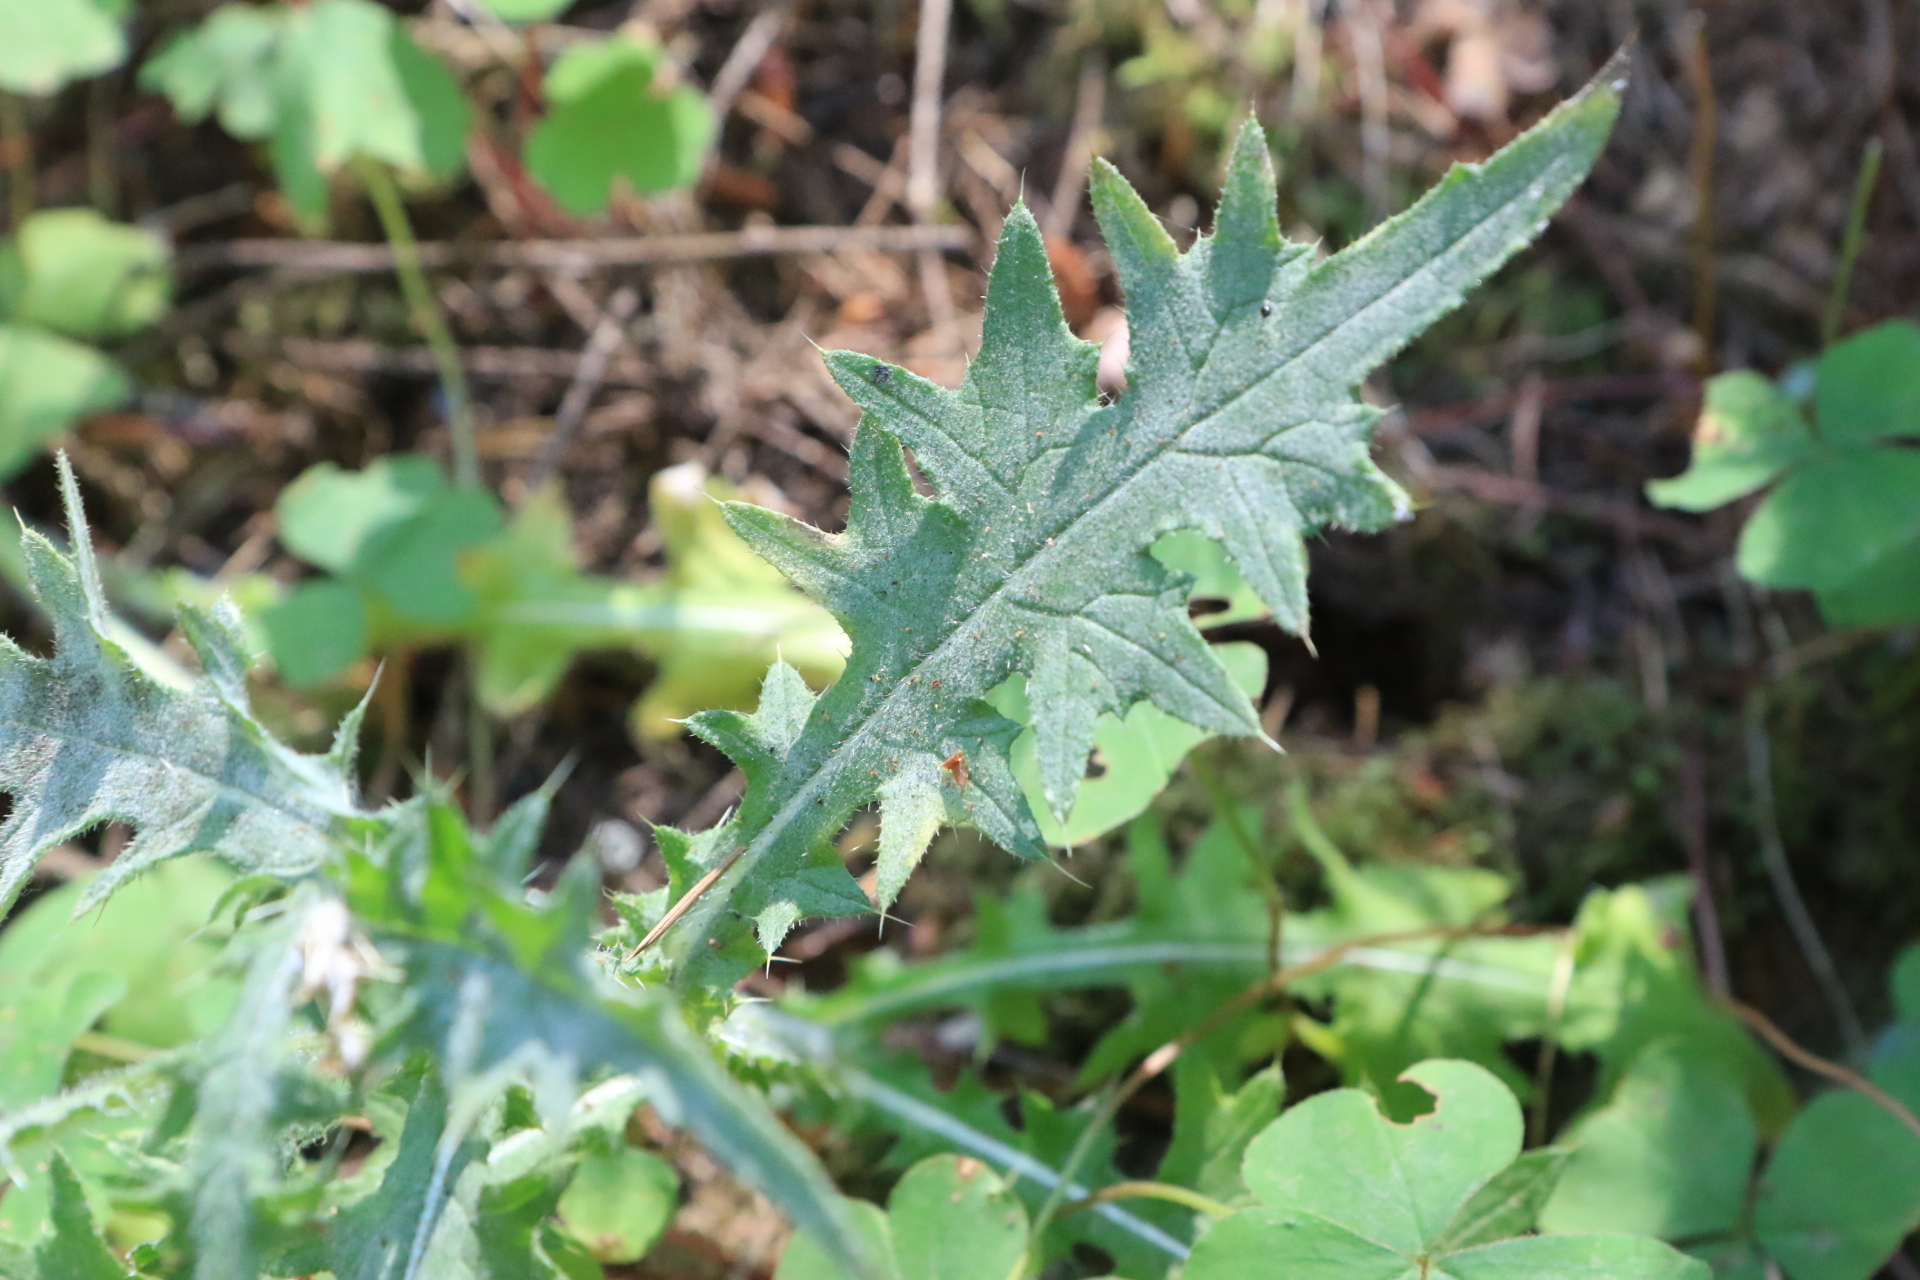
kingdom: Plantae
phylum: Tracheophyta
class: Magnoliopsida
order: Asterales
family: Asteraceae
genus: Cirsium
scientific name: Cirsium vulgare
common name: Bull thistle
